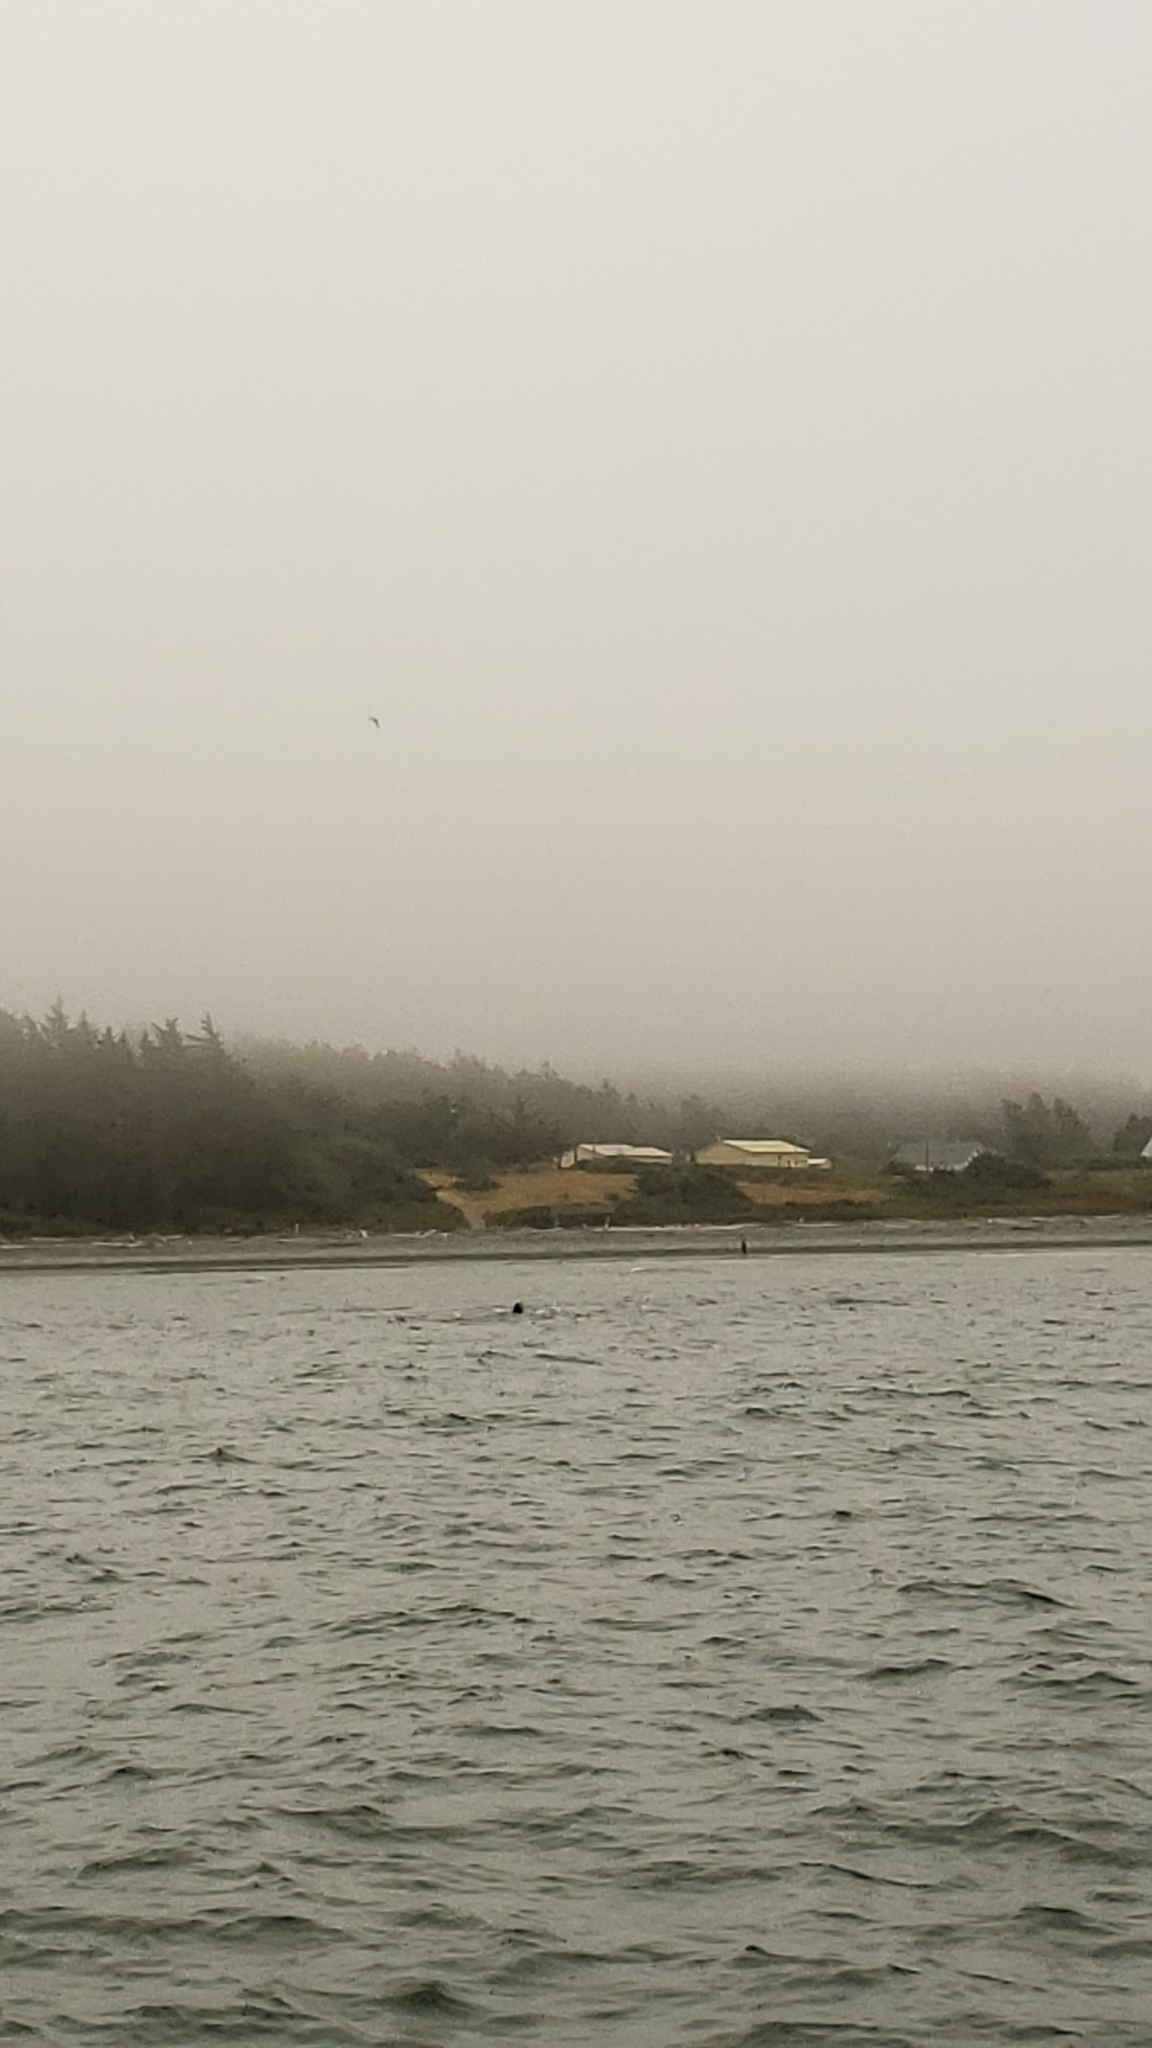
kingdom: Animalia
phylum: Chordata
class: Mammalia
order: Cetacea
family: Eschrichtiidae
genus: Eschrichtius
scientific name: Eschrichtius robustus
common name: Gray whale
